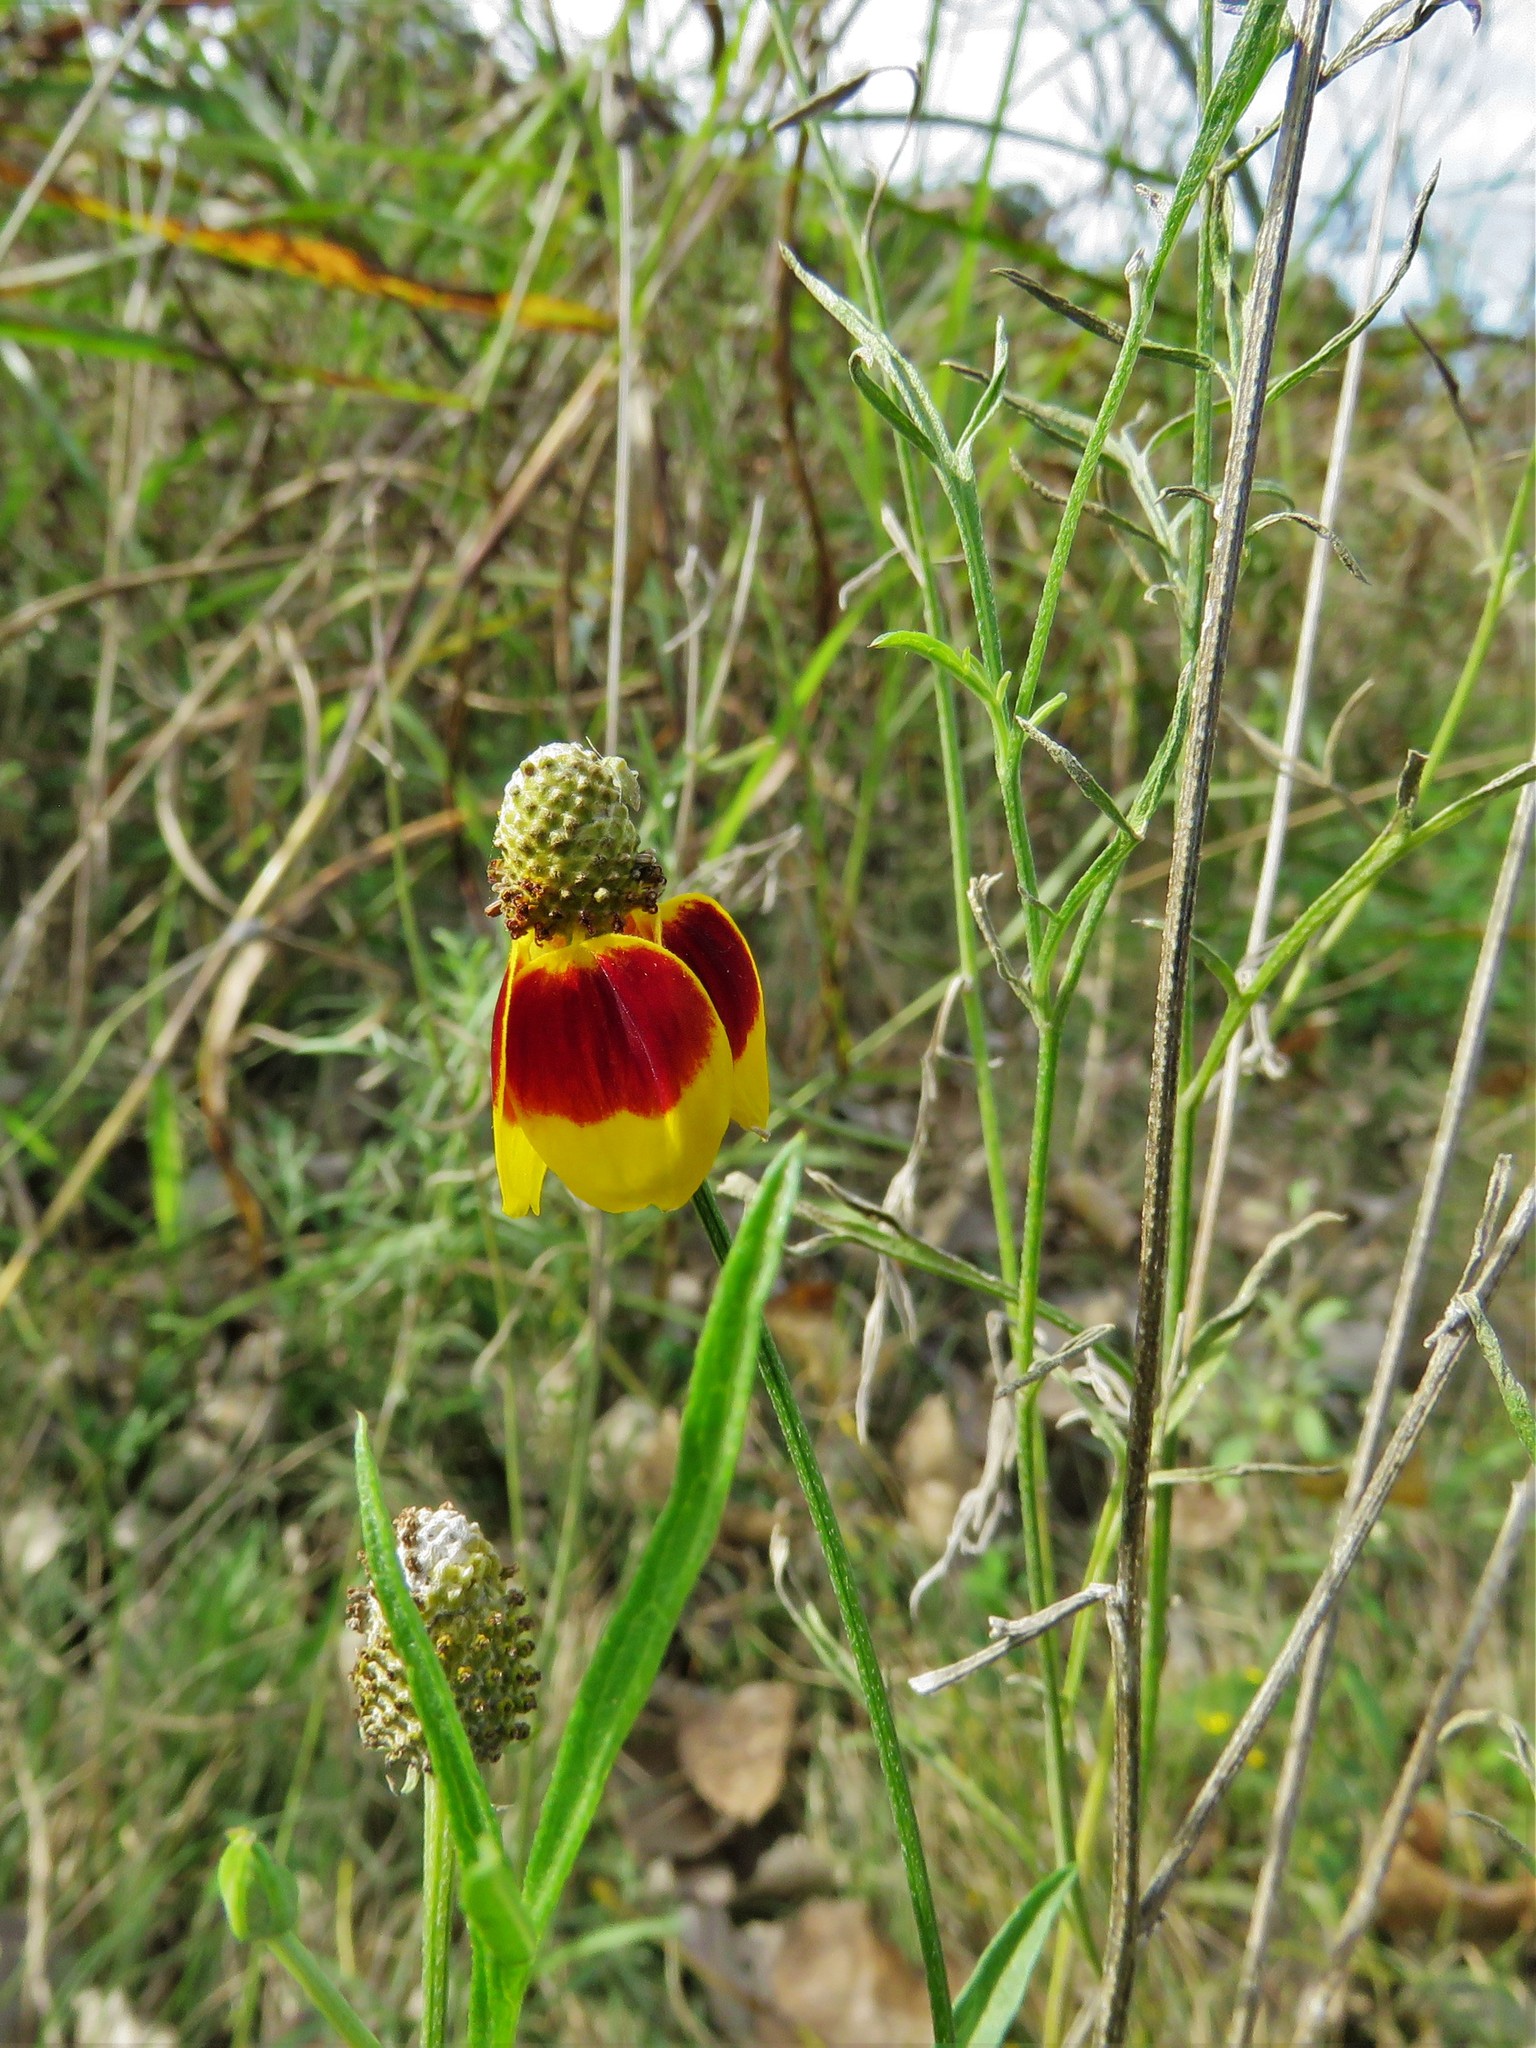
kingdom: Plantae
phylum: Tracheophyta
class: Magnoliopsida
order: Asterales
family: Asteraceae
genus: Ratibida
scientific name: Ratibida columnifera
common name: Prairie coneflower
